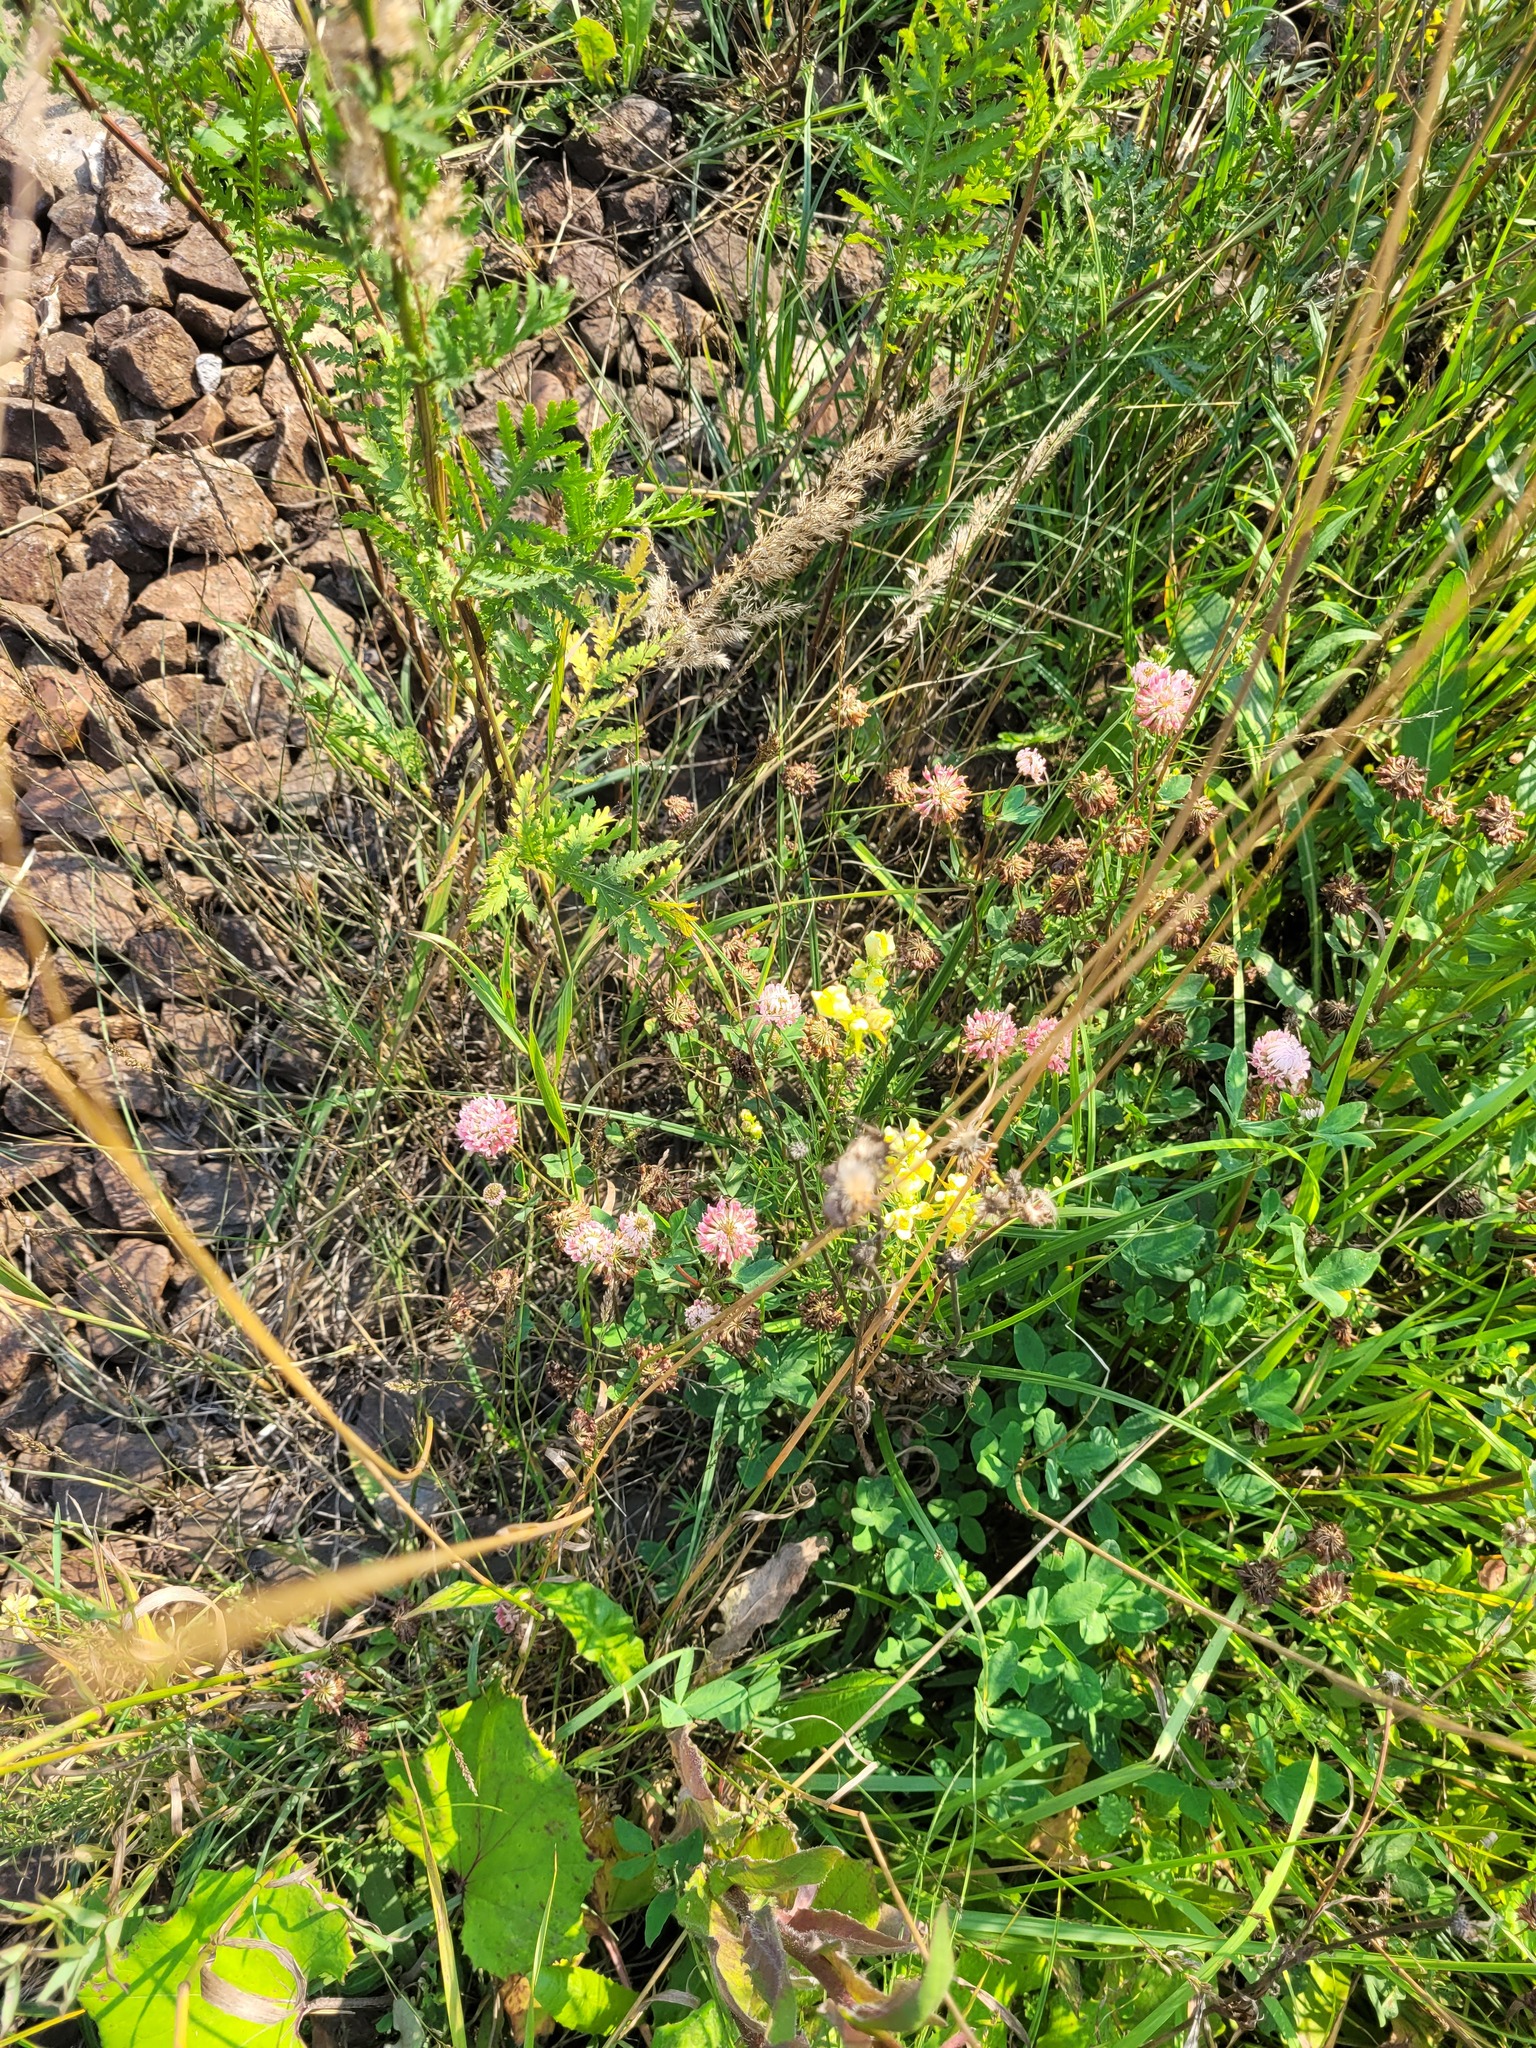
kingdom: Plantae
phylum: Tracheophyta
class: Magnoliopsida
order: Fabales
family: Fabaceae
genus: Trifolium
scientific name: Trifolium hybridum
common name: Alsike clover
